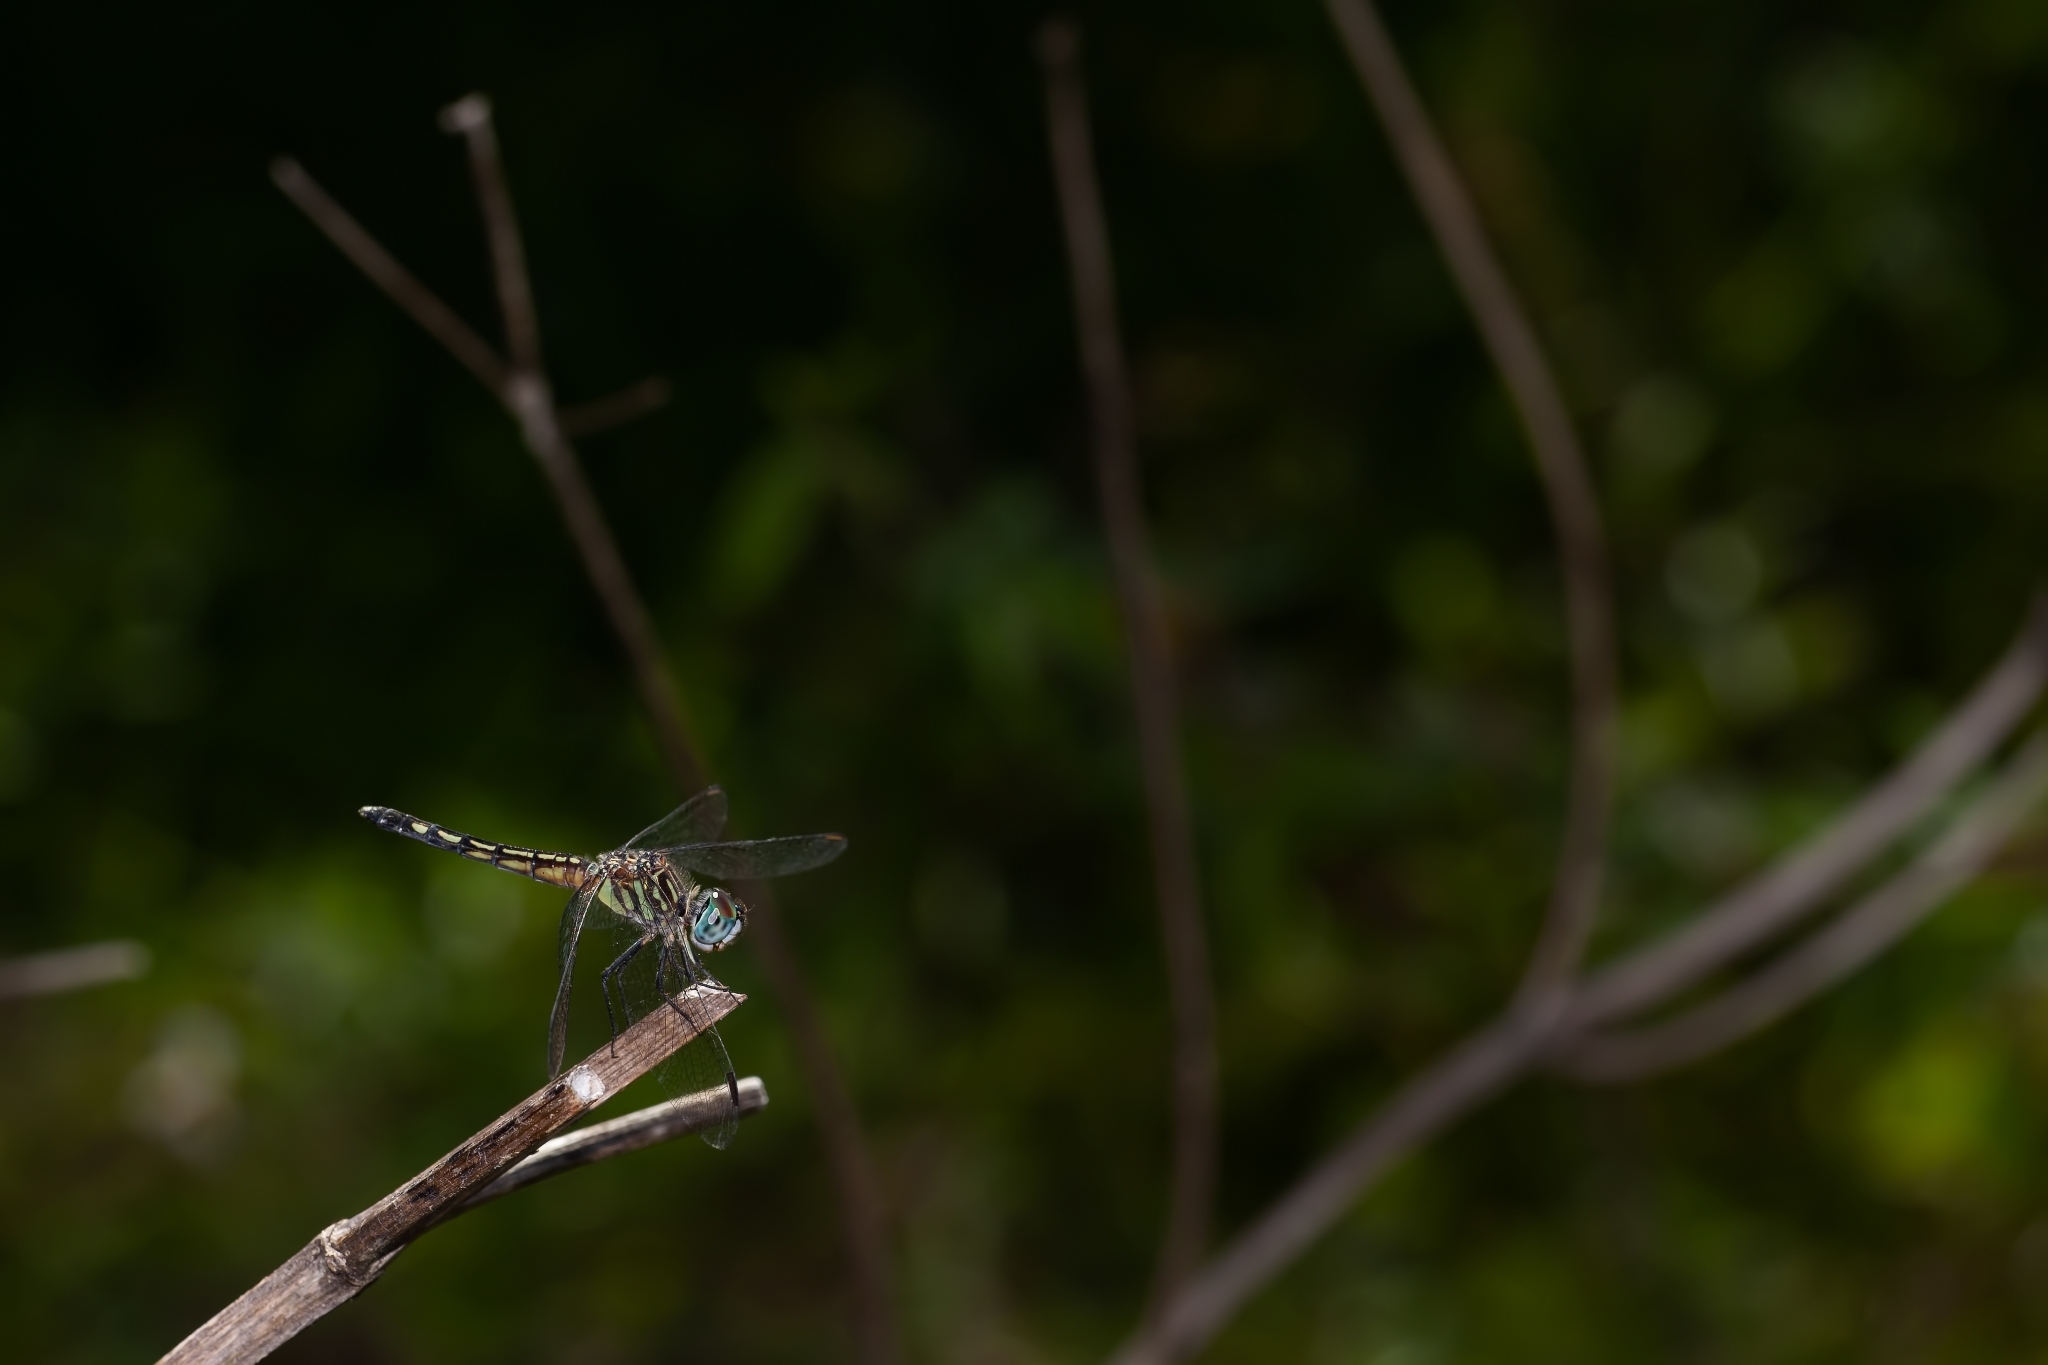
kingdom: Animalia
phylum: Arthropoda
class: Insecta
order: Odonata
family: Libellulidae
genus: Pachydiplax
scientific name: Pachydiplax longipennis
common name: Blue dasher
